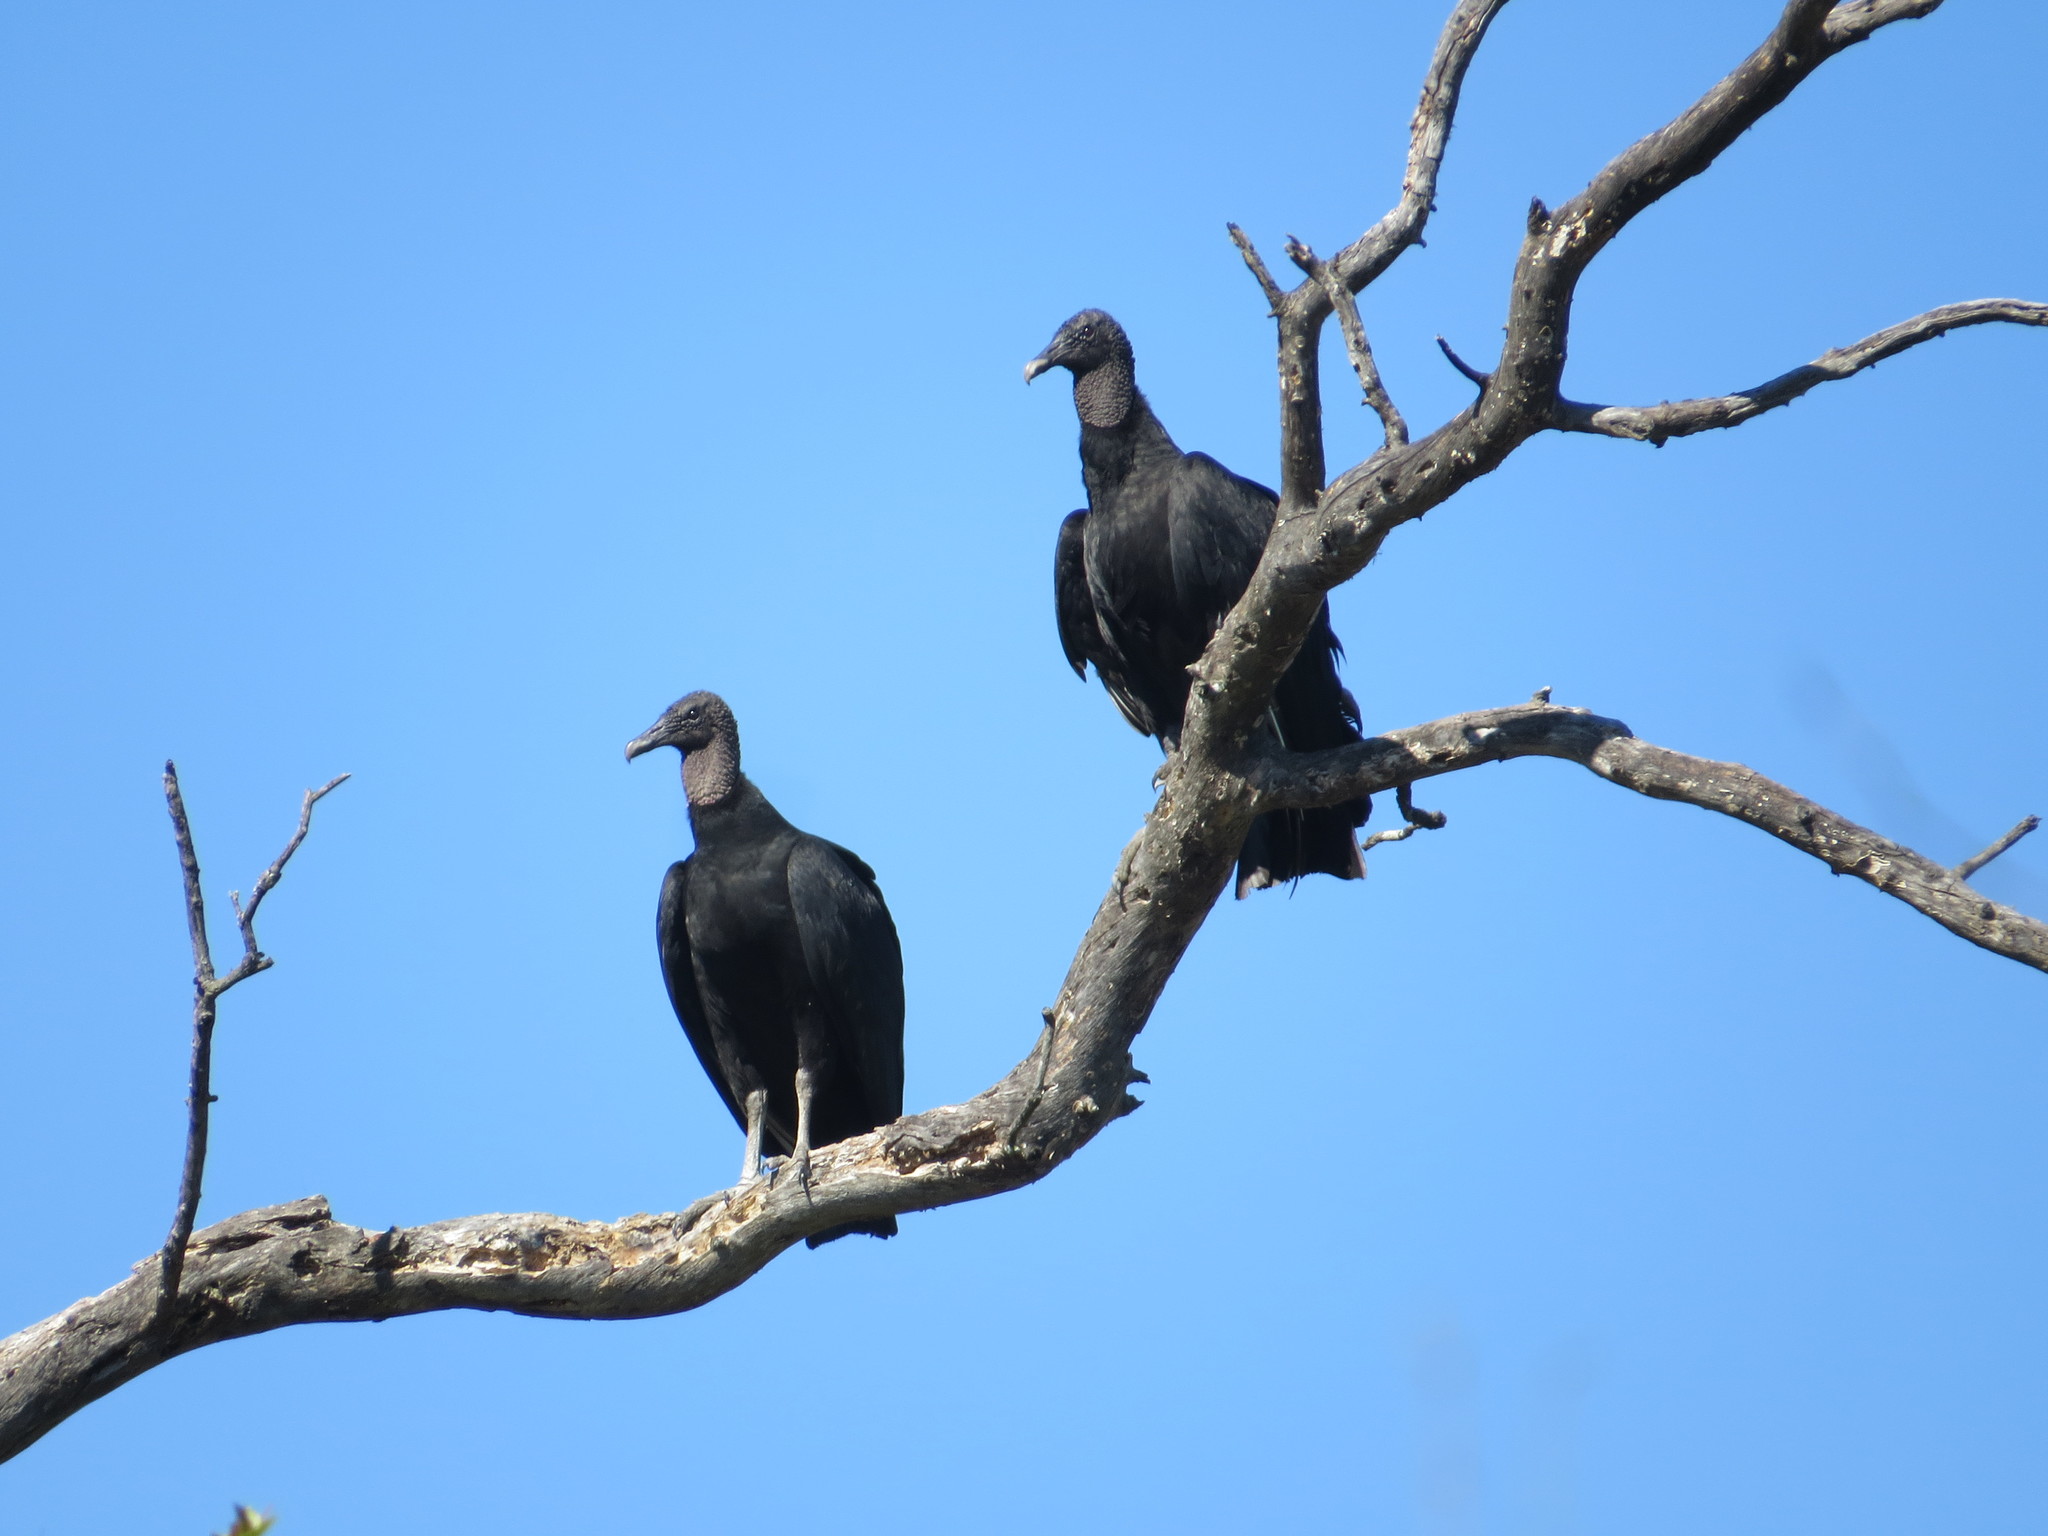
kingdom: Animalia
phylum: Chordata
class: Aves
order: Accipitriformes
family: Cathartidae
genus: Coragyps
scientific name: Coragyps atratus
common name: Black vulture
